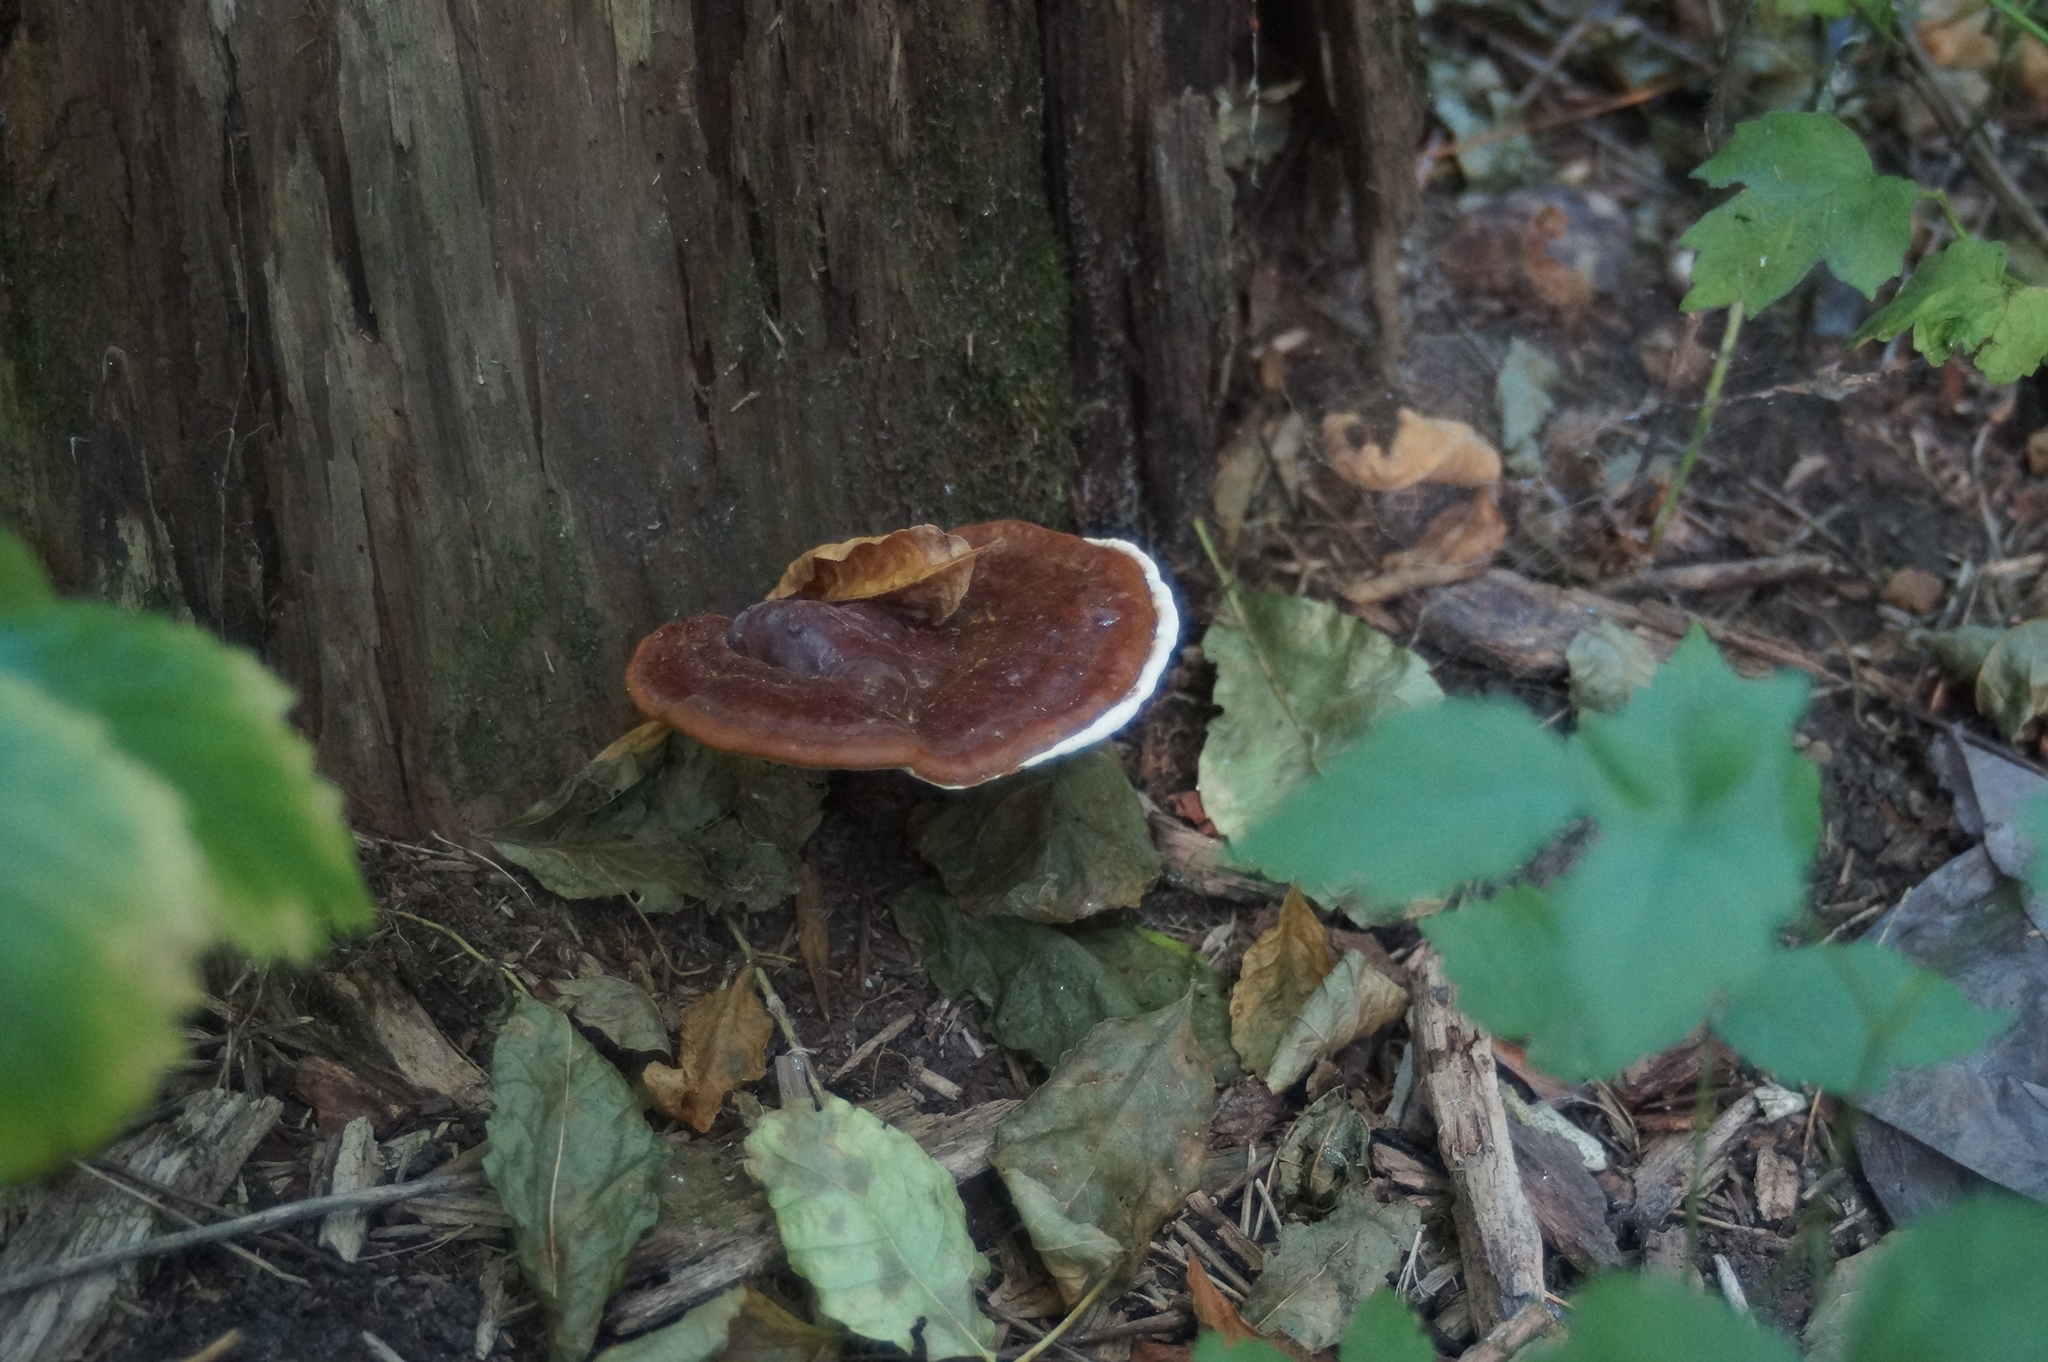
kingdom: Fungi
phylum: Basidiomycota
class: Agaricomycetes
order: Polyporales
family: Polyporaceae
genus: Ganoderma
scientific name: Ganoderma applanatum
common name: Artist's bracket
